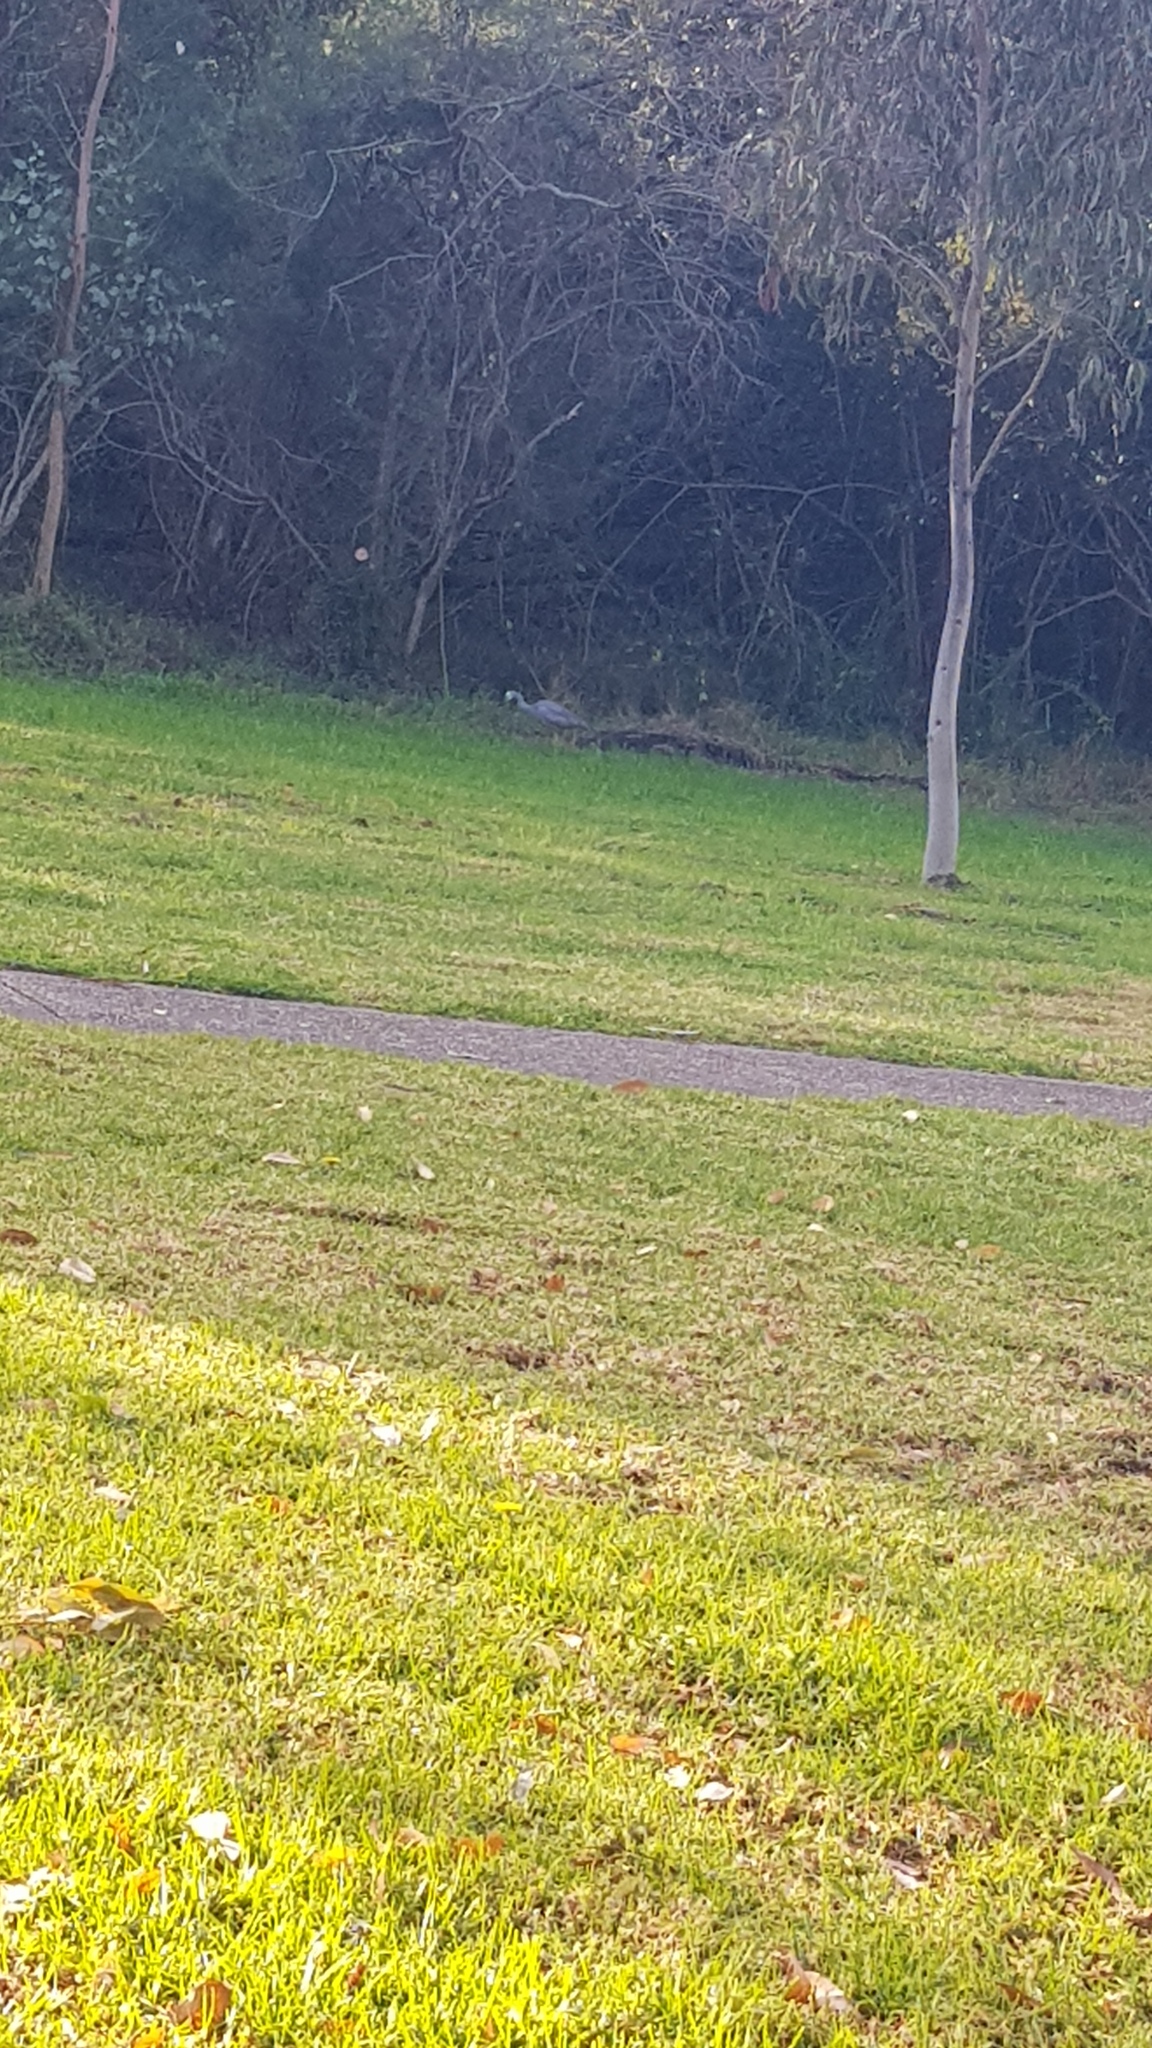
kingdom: Animalia
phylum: Chordata
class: Aves
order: Pelecaniformes
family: Ardeidae
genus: Egretta
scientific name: Egretta novaehollandiae
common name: White-faced heron
